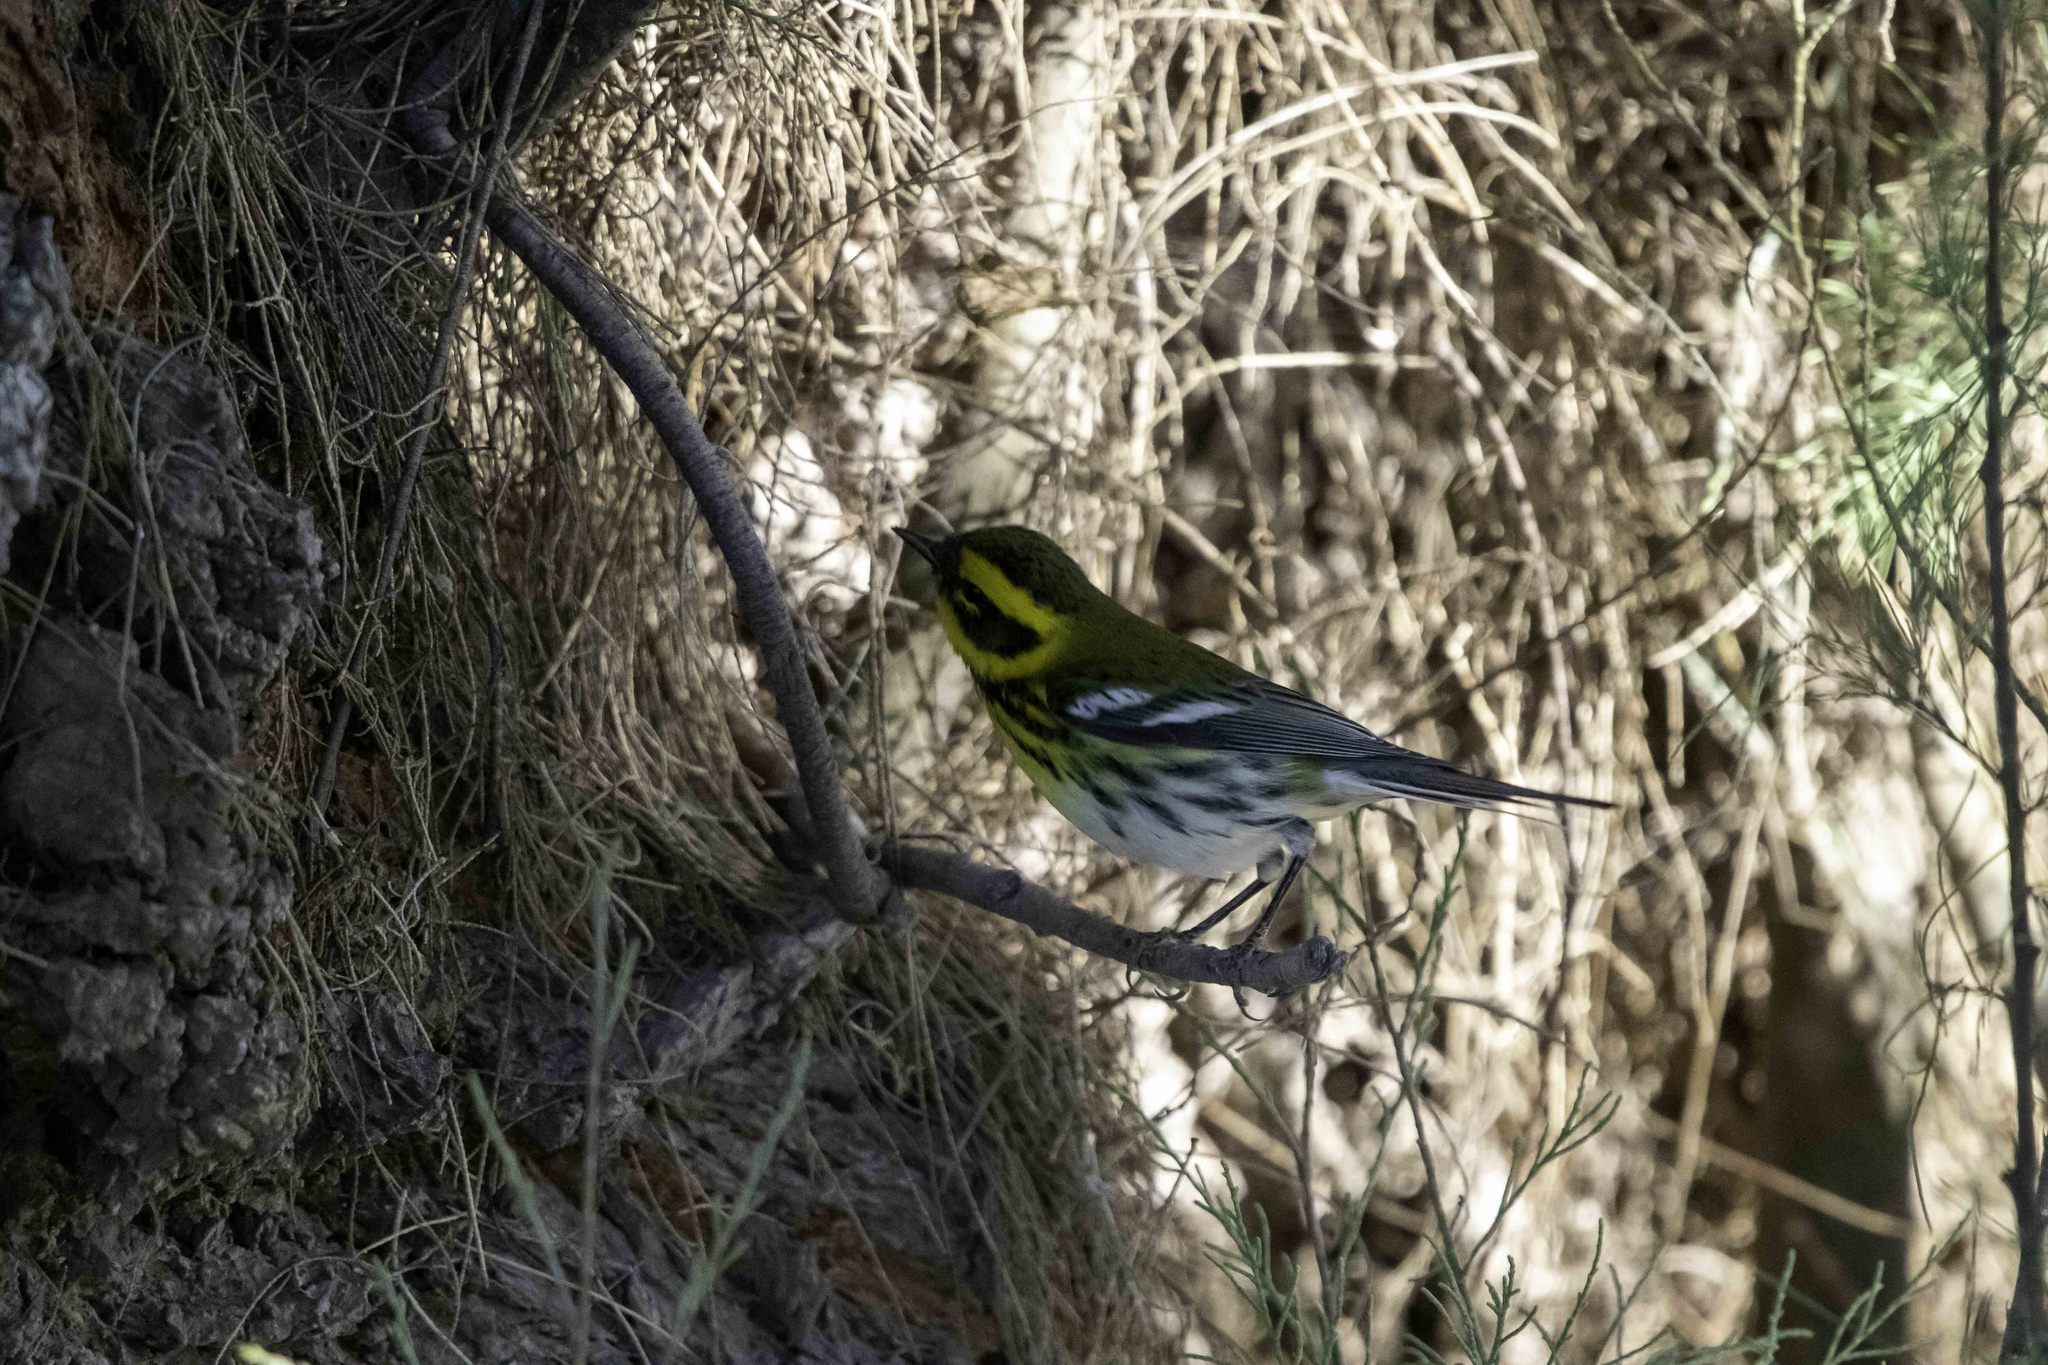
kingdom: Animalia
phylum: Chordata
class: Aves
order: Passeriformes
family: Parulidae
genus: Setophaga
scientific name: Setophaga townsendi
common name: Townsend's warbler
